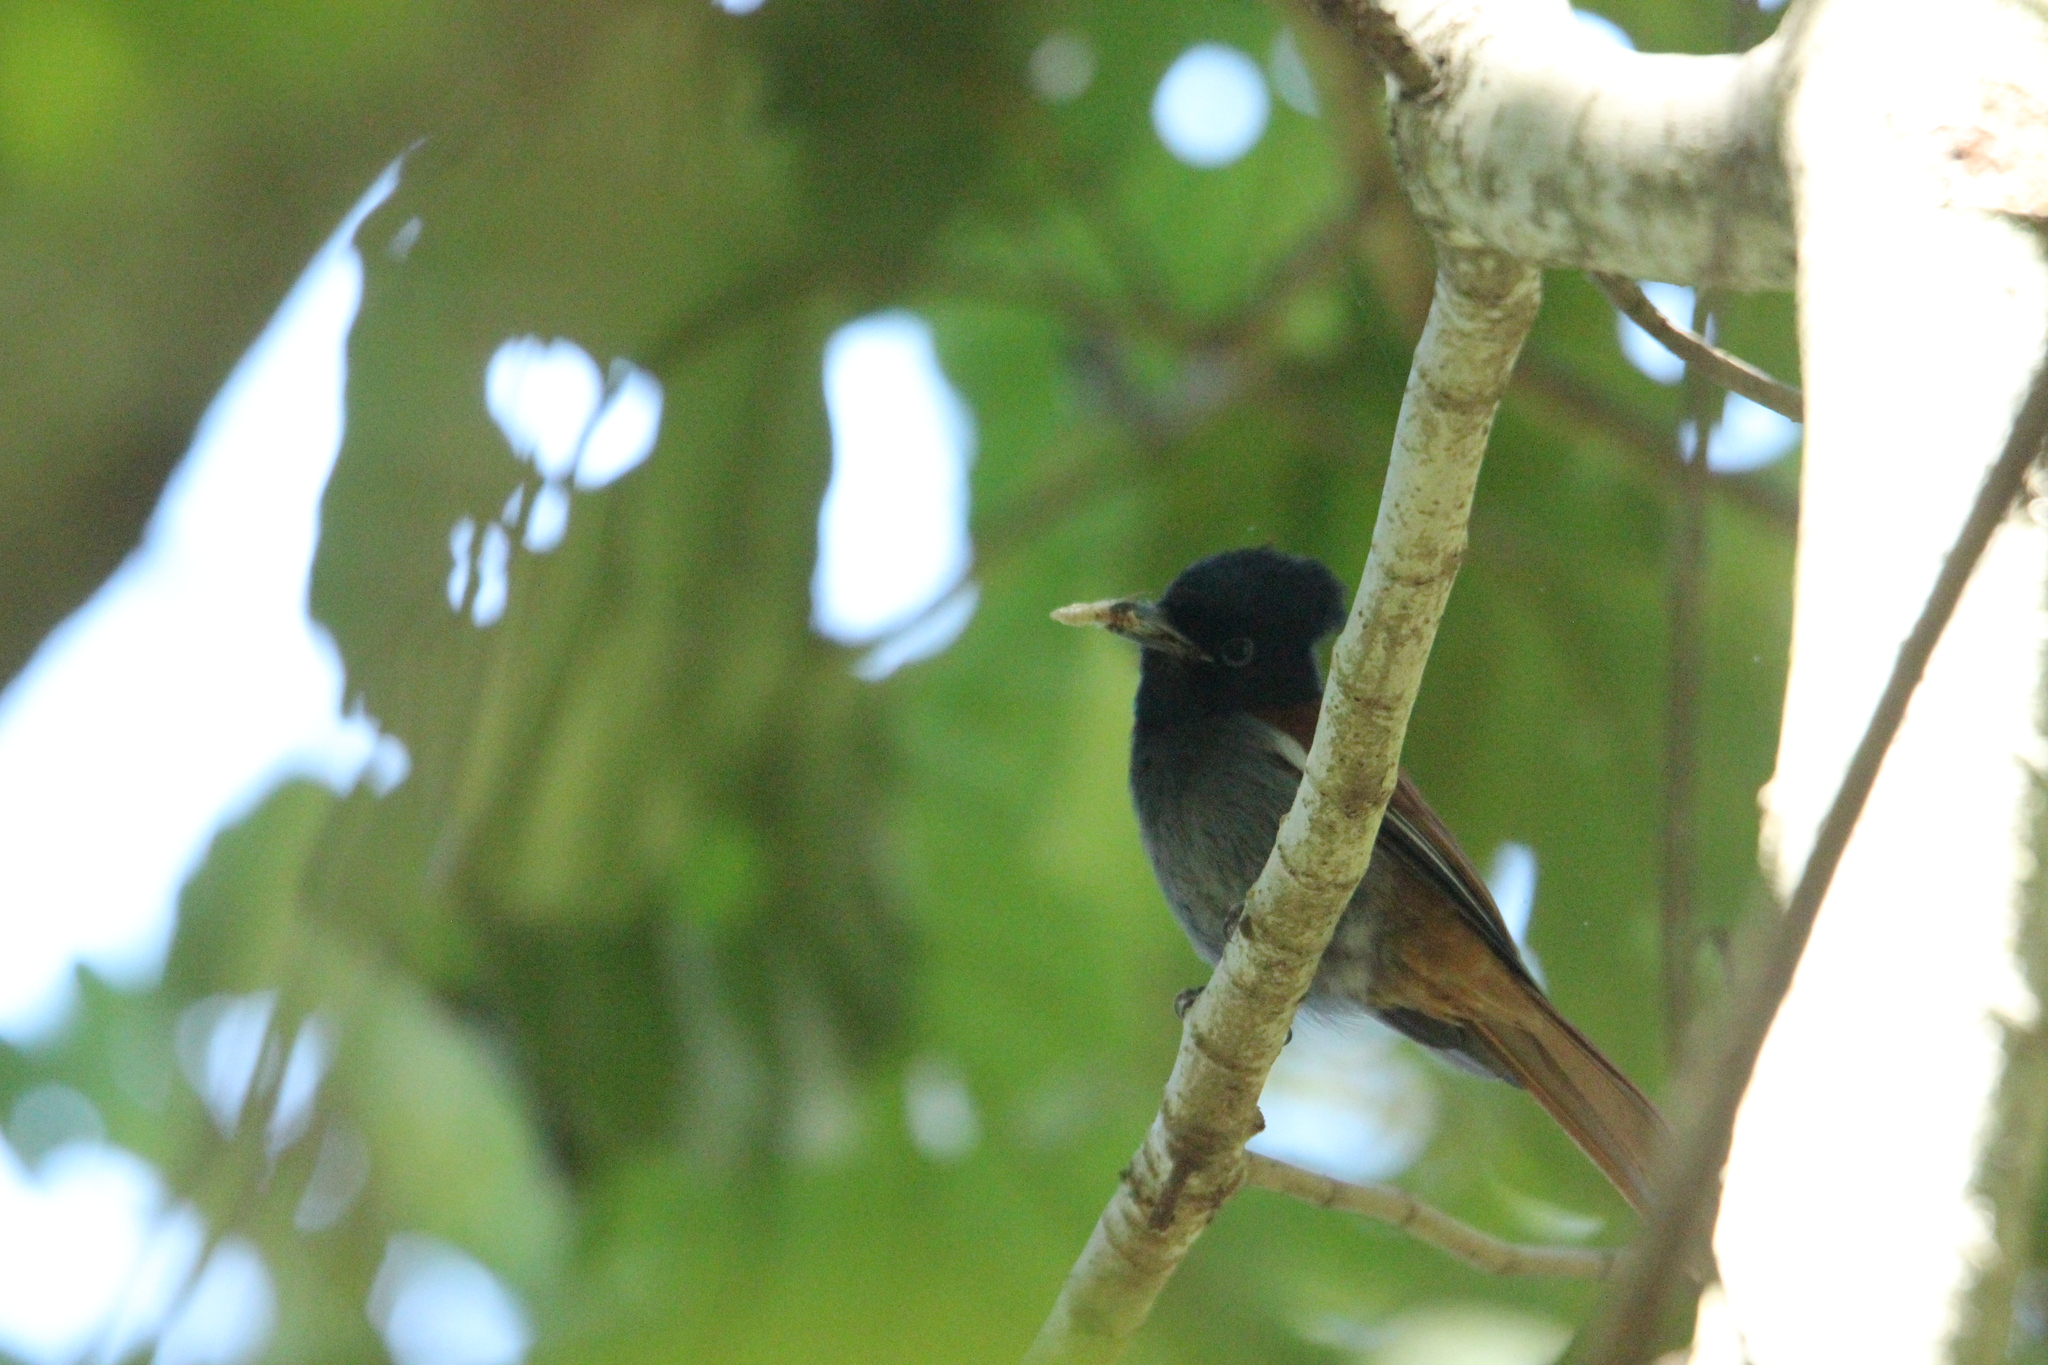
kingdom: Animalia
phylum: Chordata
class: Aves
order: Passeriformes
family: Monarchidae
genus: Terpsiphone
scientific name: Terpsiphone viridis
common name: African paradise flycatcher
